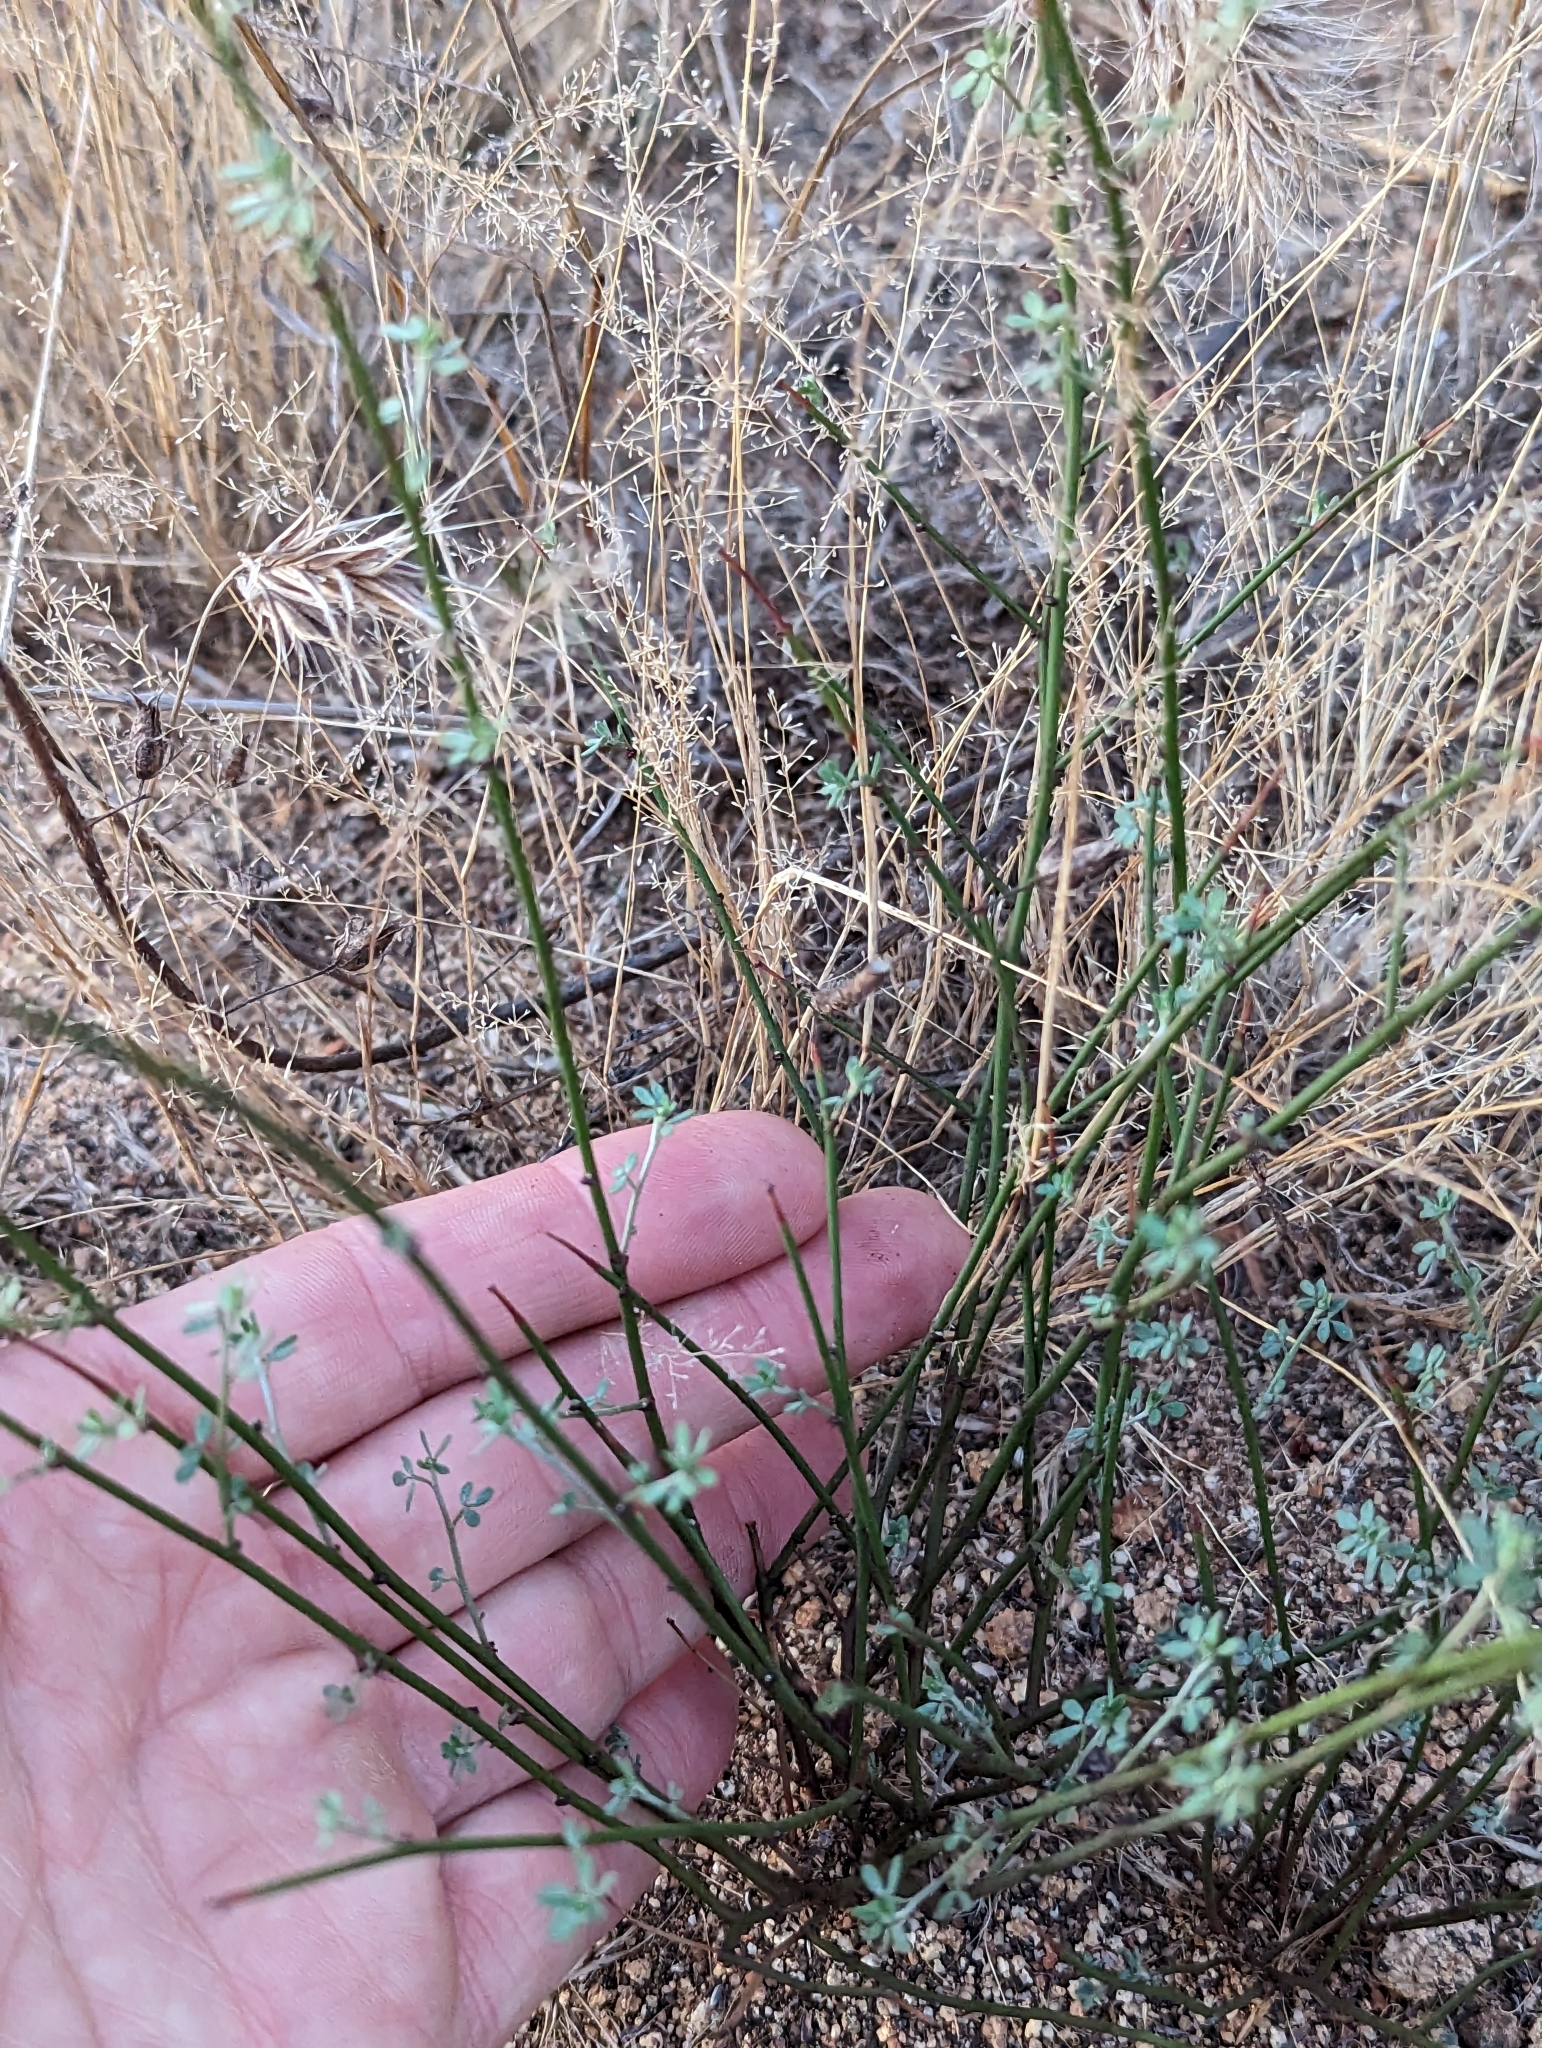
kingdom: Plantae
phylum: Tracheophyta
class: Magnoliopsida
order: Fabales
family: Fabaceae
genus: Acmispon
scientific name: Acmispon glaber
